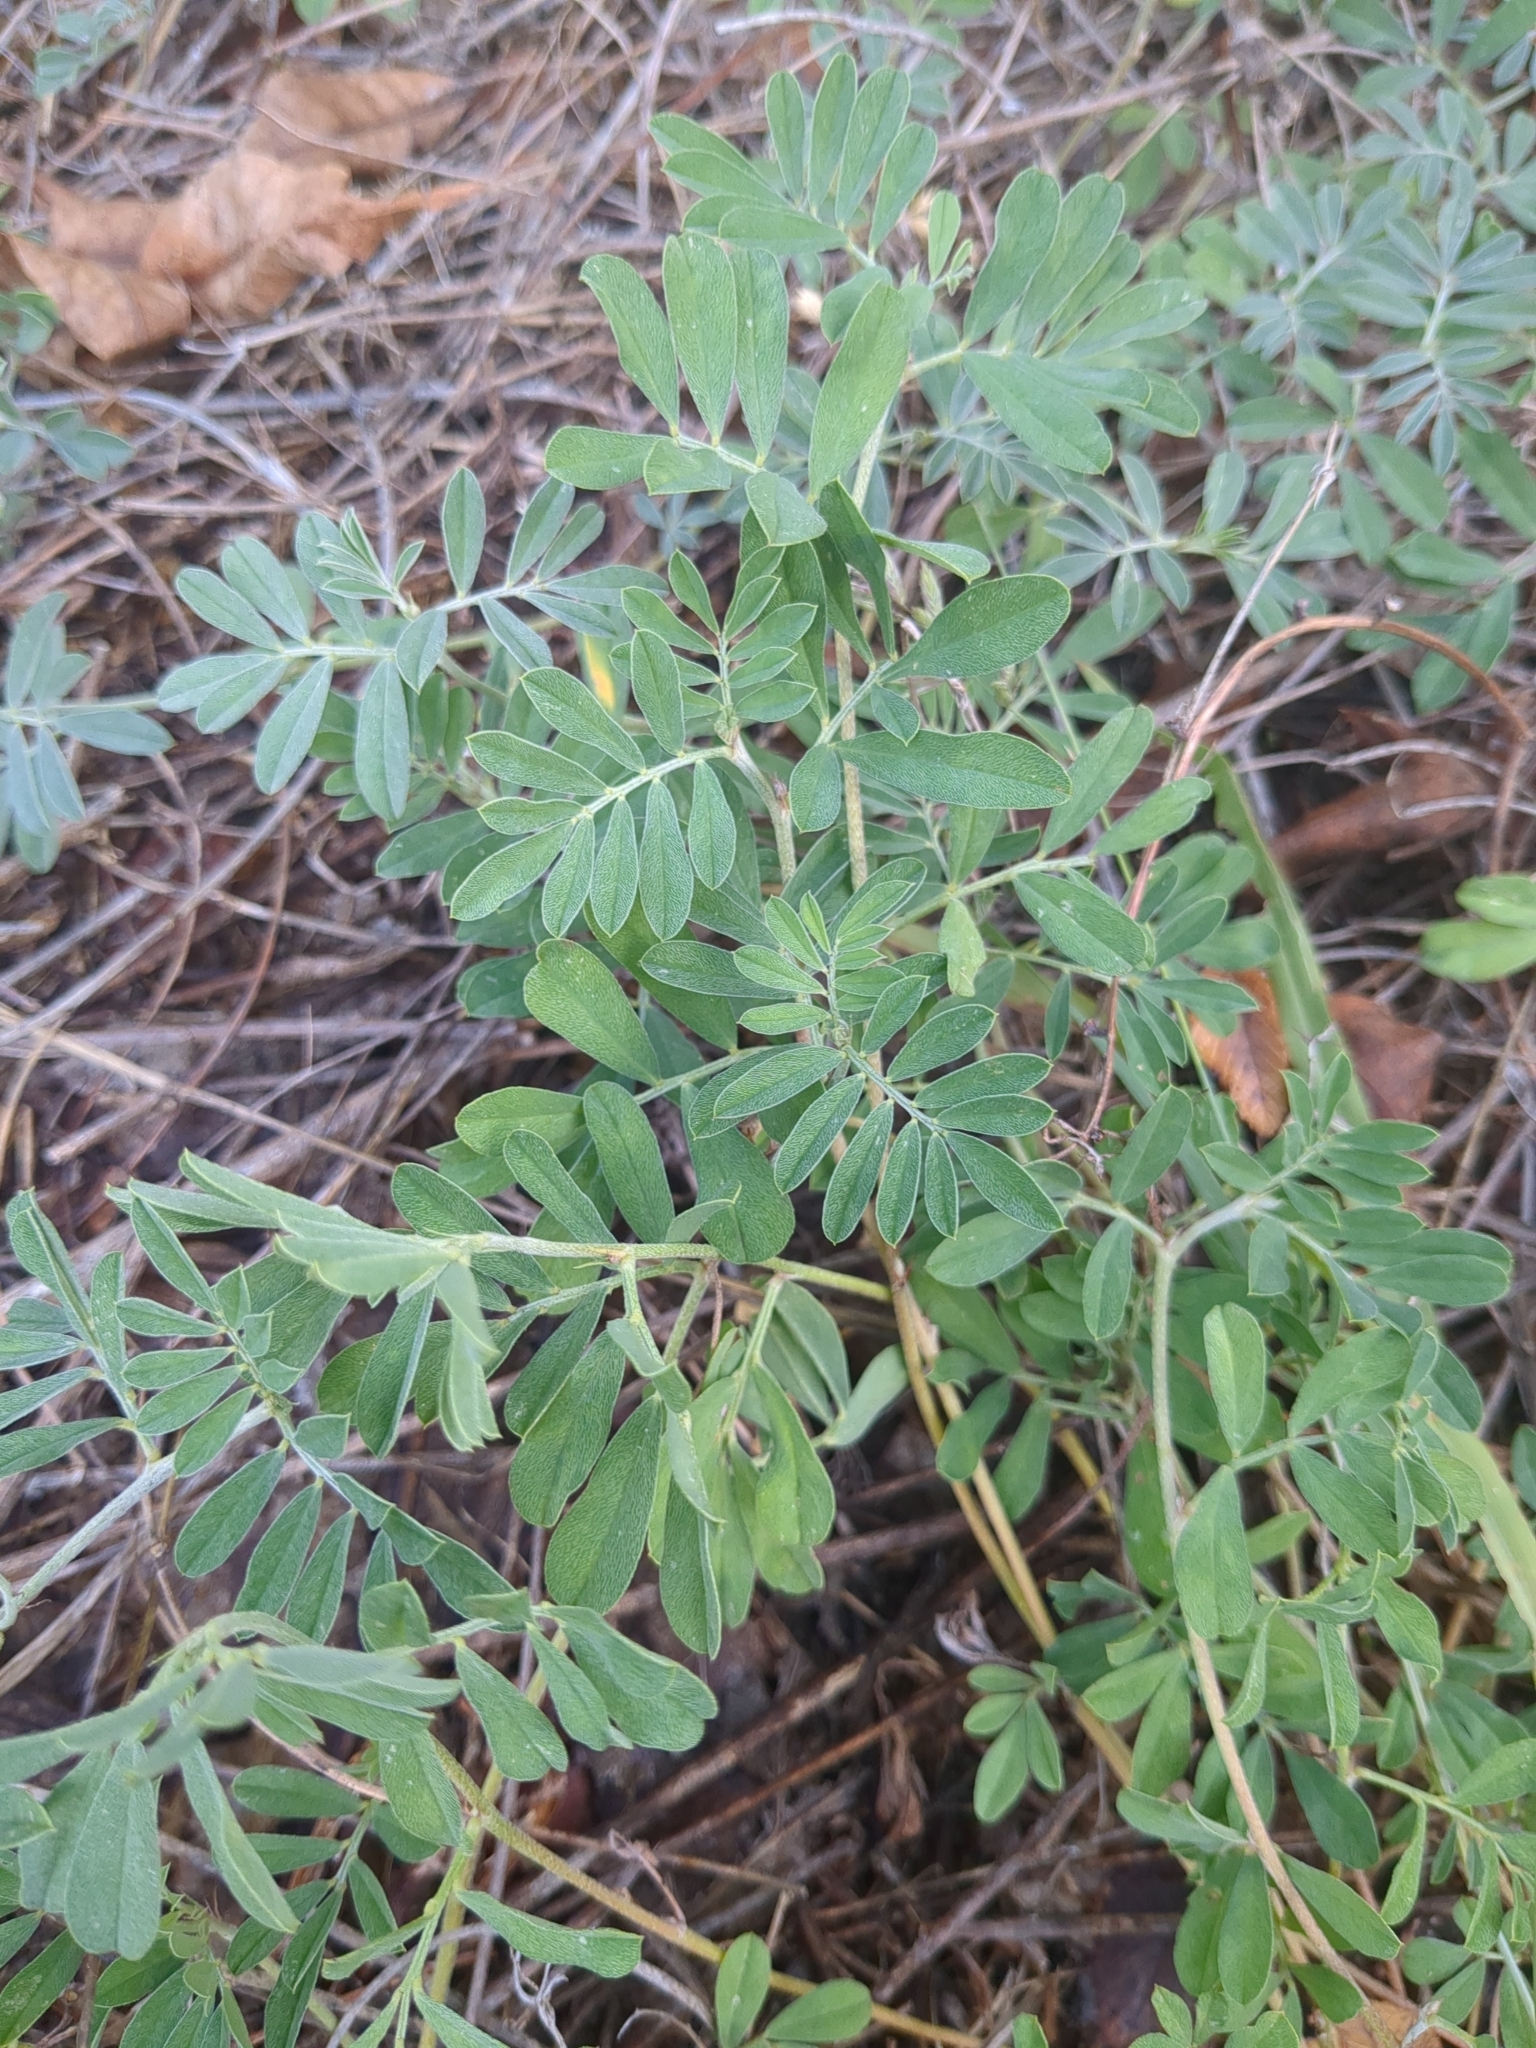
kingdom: Plantae
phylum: Tracheophyta
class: Magnoliopsida
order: Fabales
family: Fabaceae
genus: Indigofera
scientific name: Indigofera miniata
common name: Coast indigo
